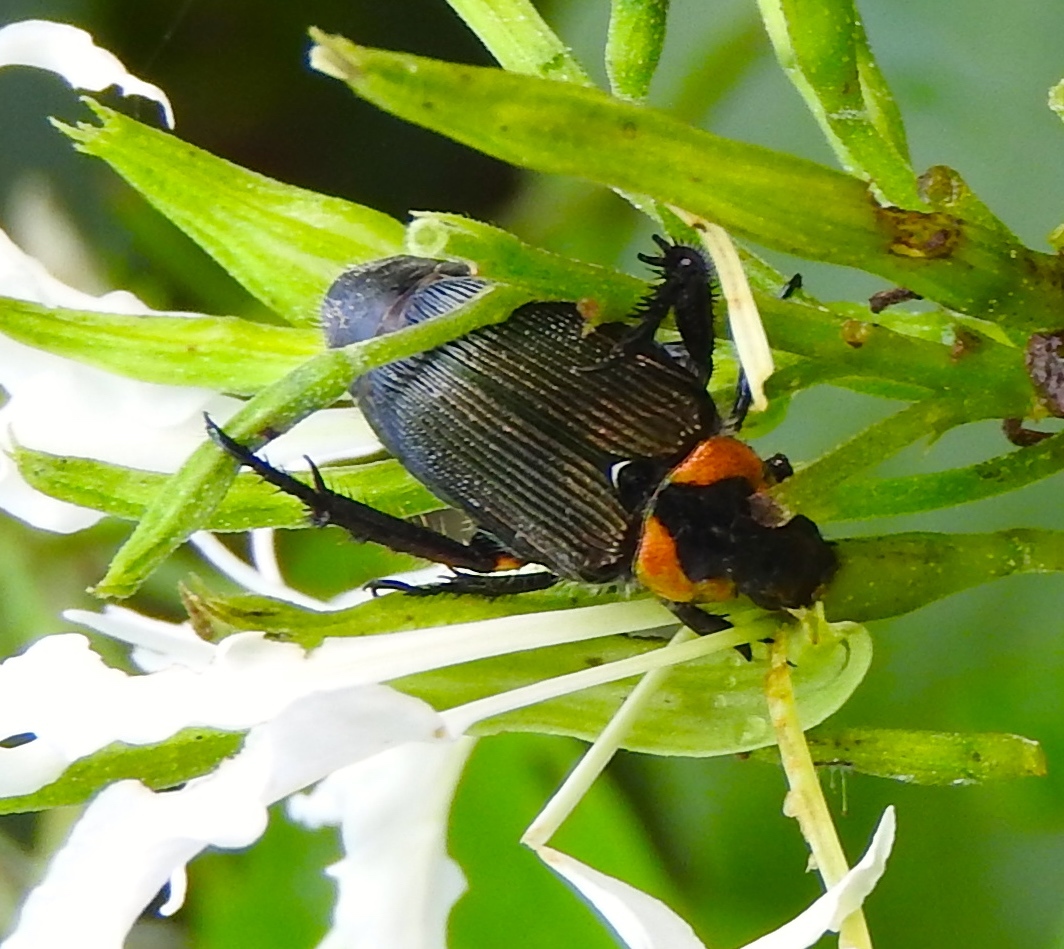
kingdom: Animalia
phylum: Arthropoda
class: Insecta
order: Coleoptera
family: Scarabaeidae
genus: Strigoderma
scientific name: Strigoderma sulcipennis
